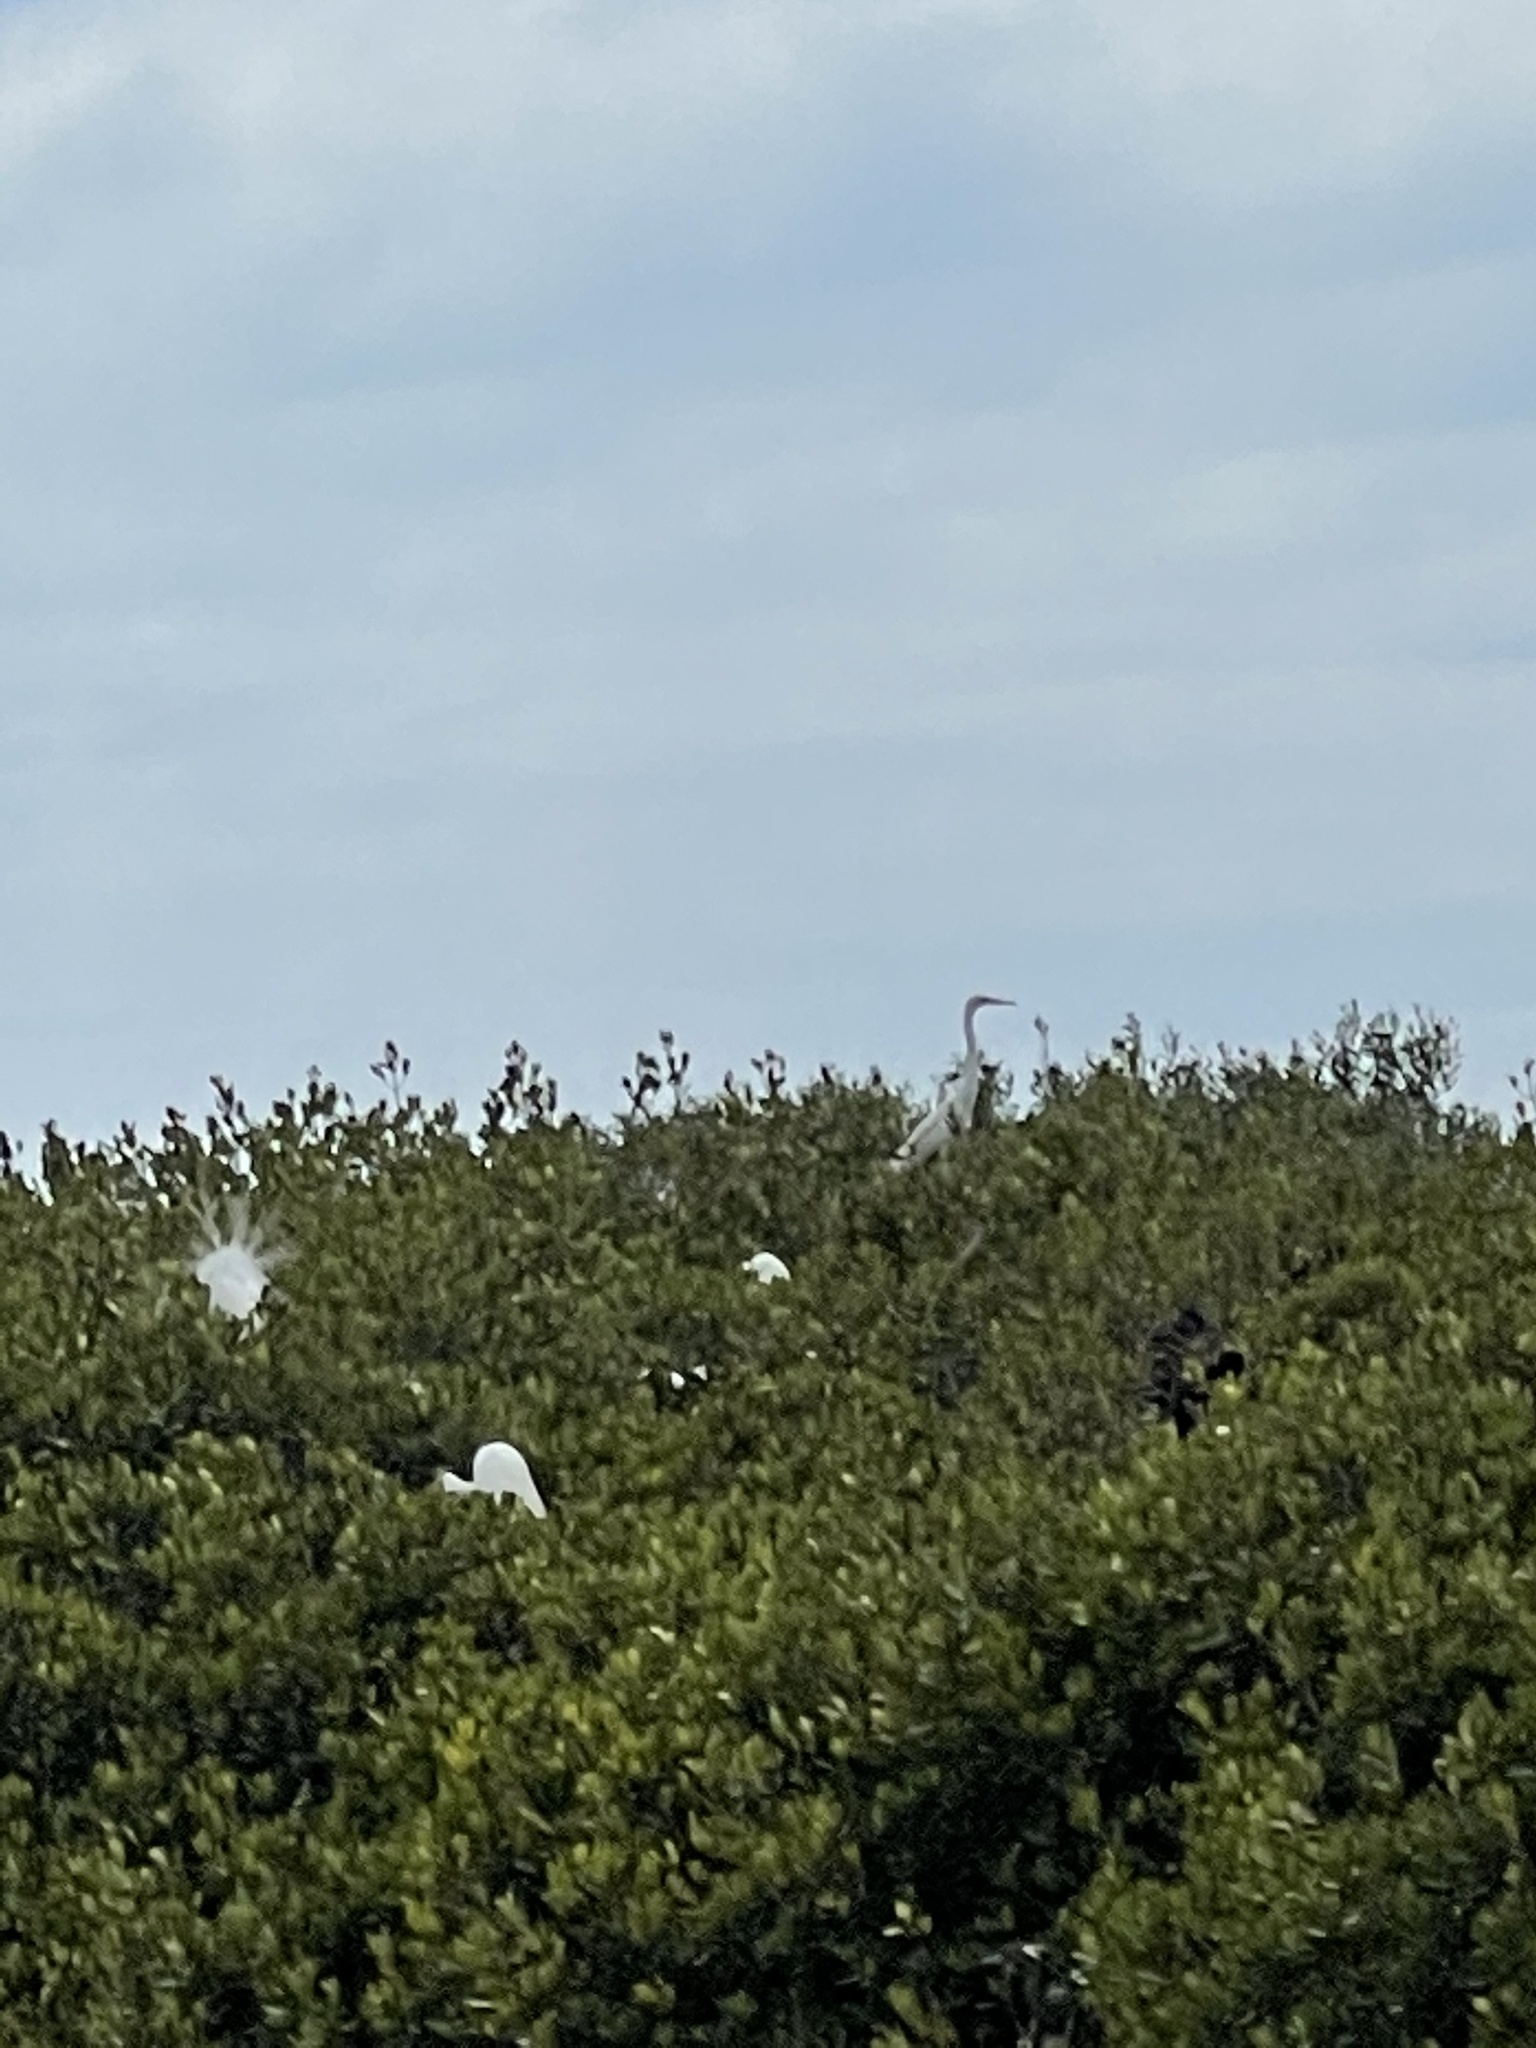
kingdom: Animalia
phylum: Chordata
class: Aves
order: Pelecaniformes
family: Ardeidae
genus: Ardea
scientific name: Ardea alba
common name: Great egret
